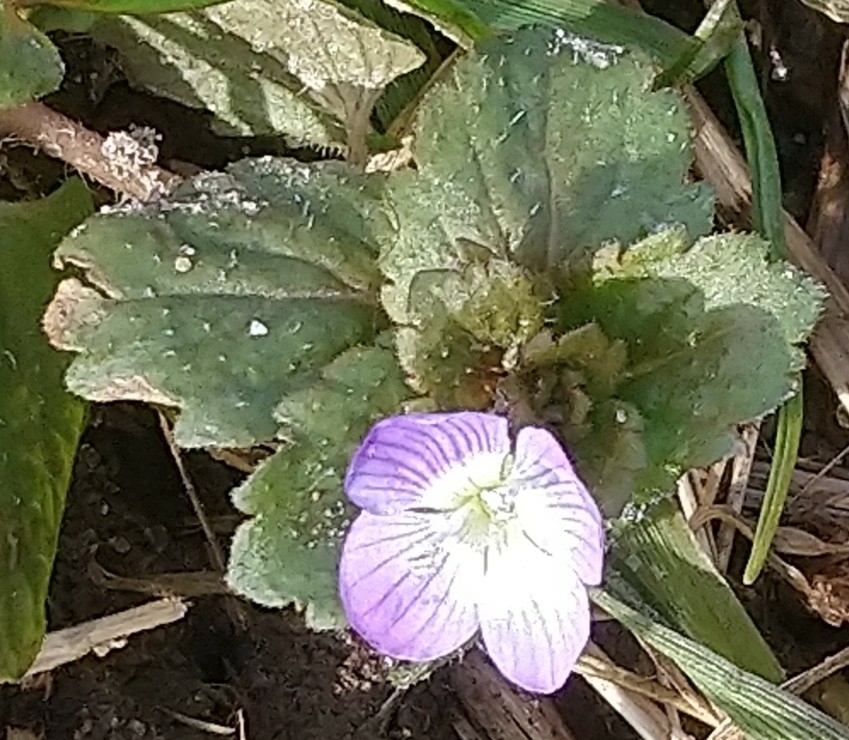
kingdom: Plantae
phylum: Tracheophyta
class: Magnoliopsida
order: Lamiales
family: Plantaginaceae
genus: Veronica
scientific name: Veronica persica
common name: Common field-speedwell
